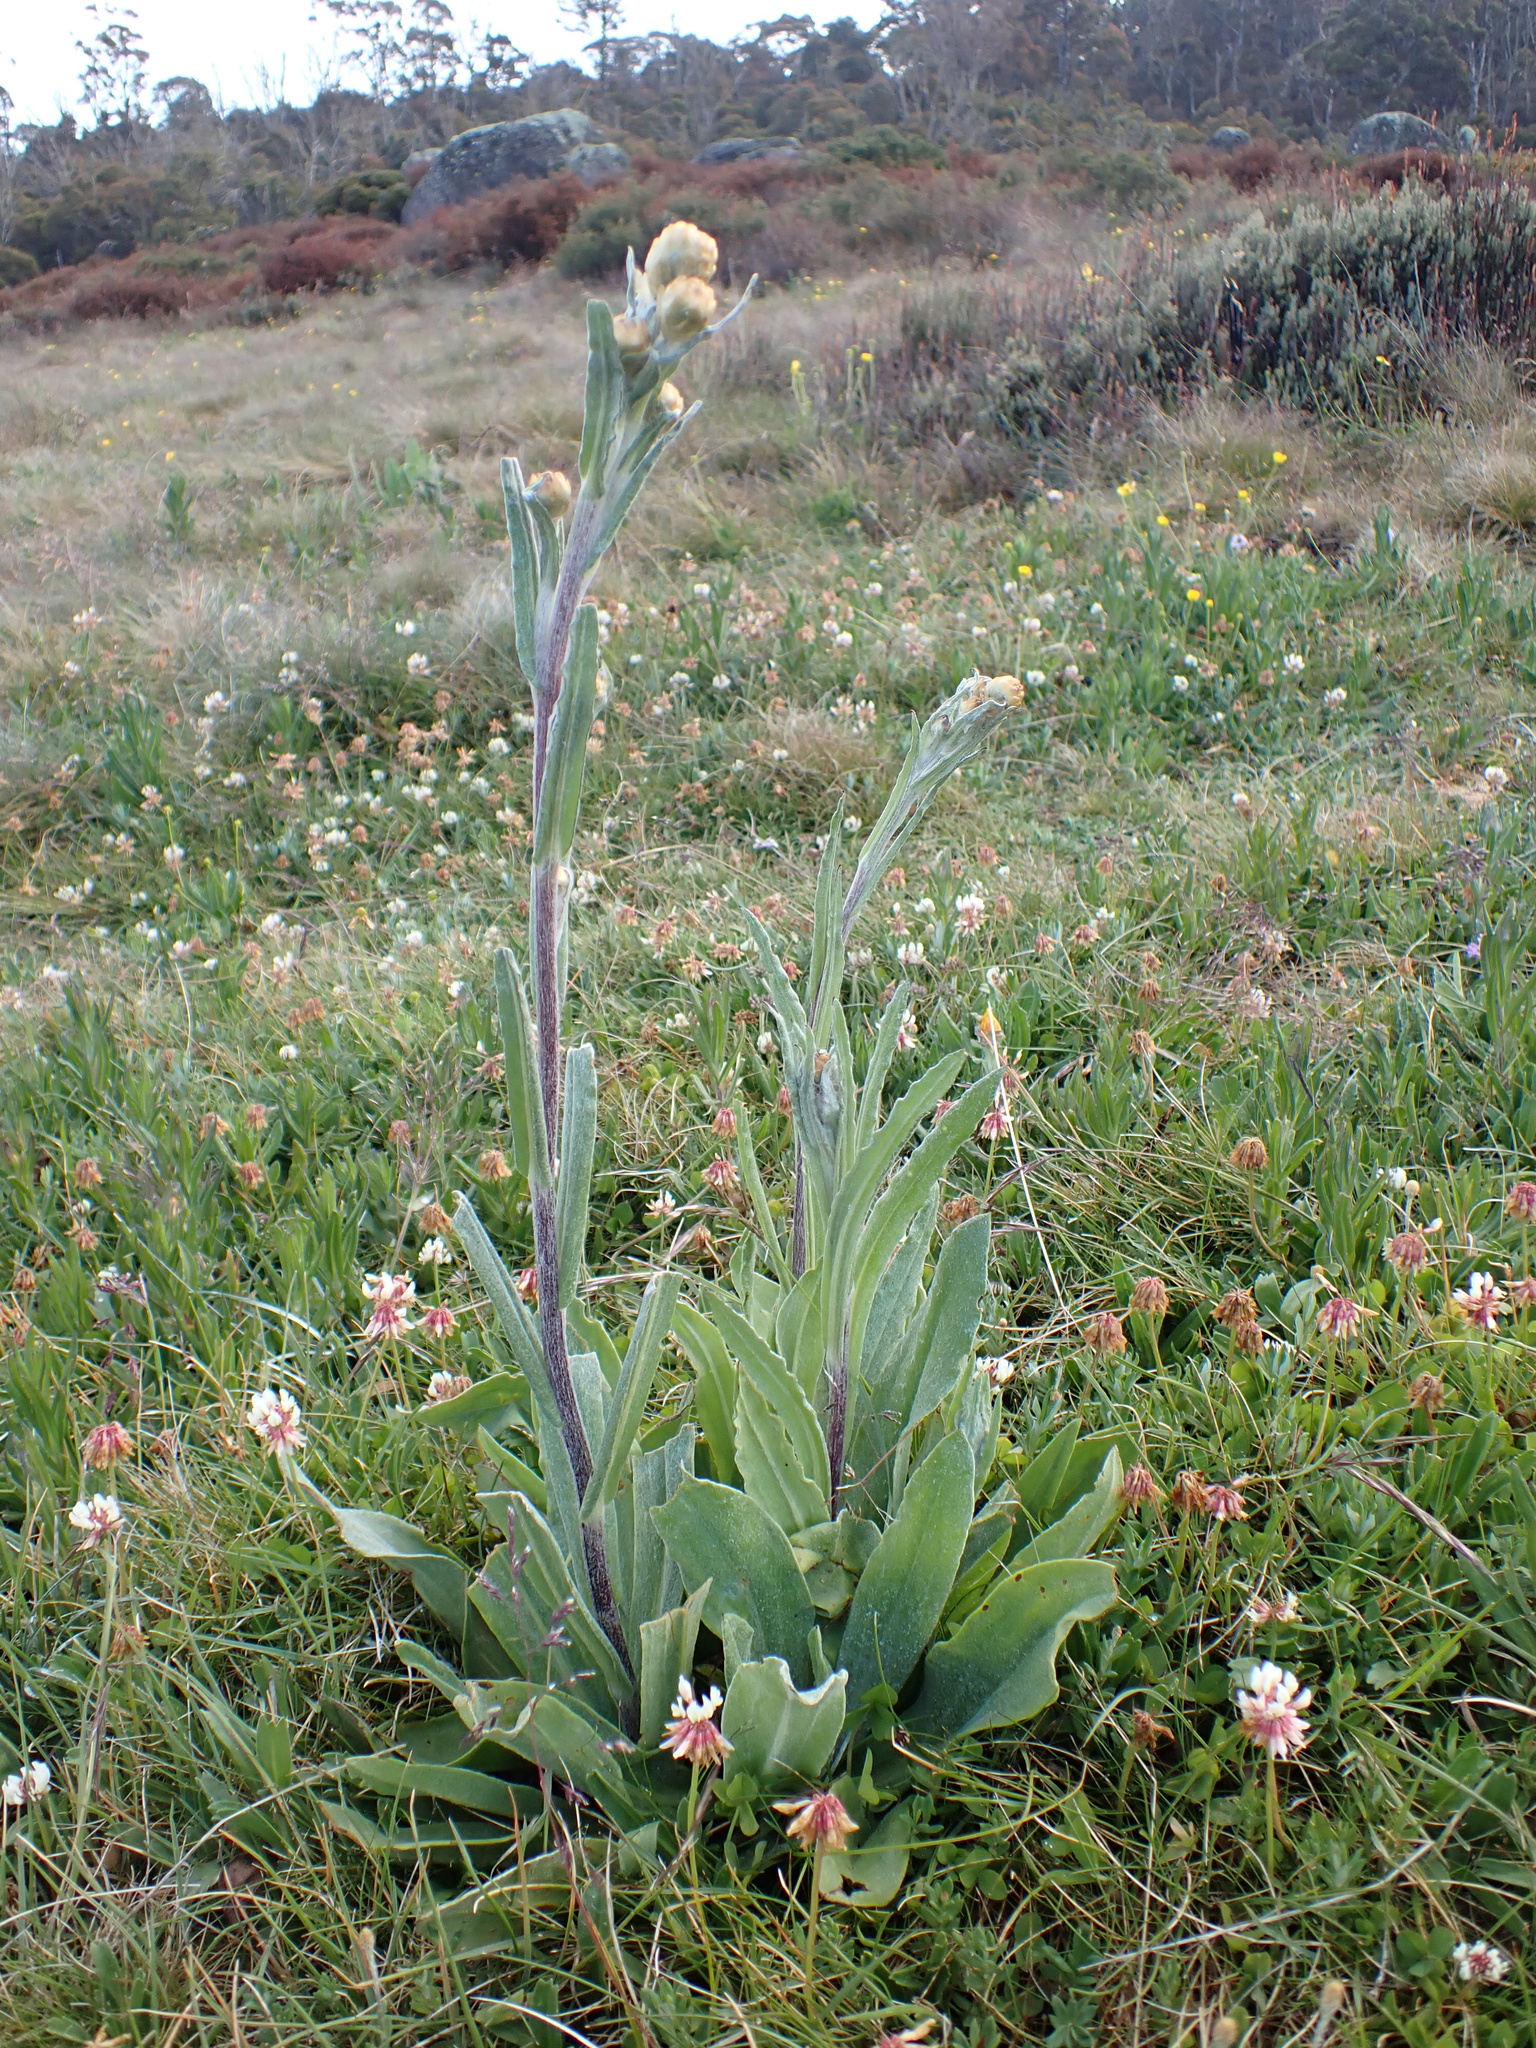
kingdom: Plantae
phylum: Tracheophyta
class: Magnoliopsida
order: Asterales
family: Asteraceae
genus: Podolepis
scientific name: Podolepis laciniata
